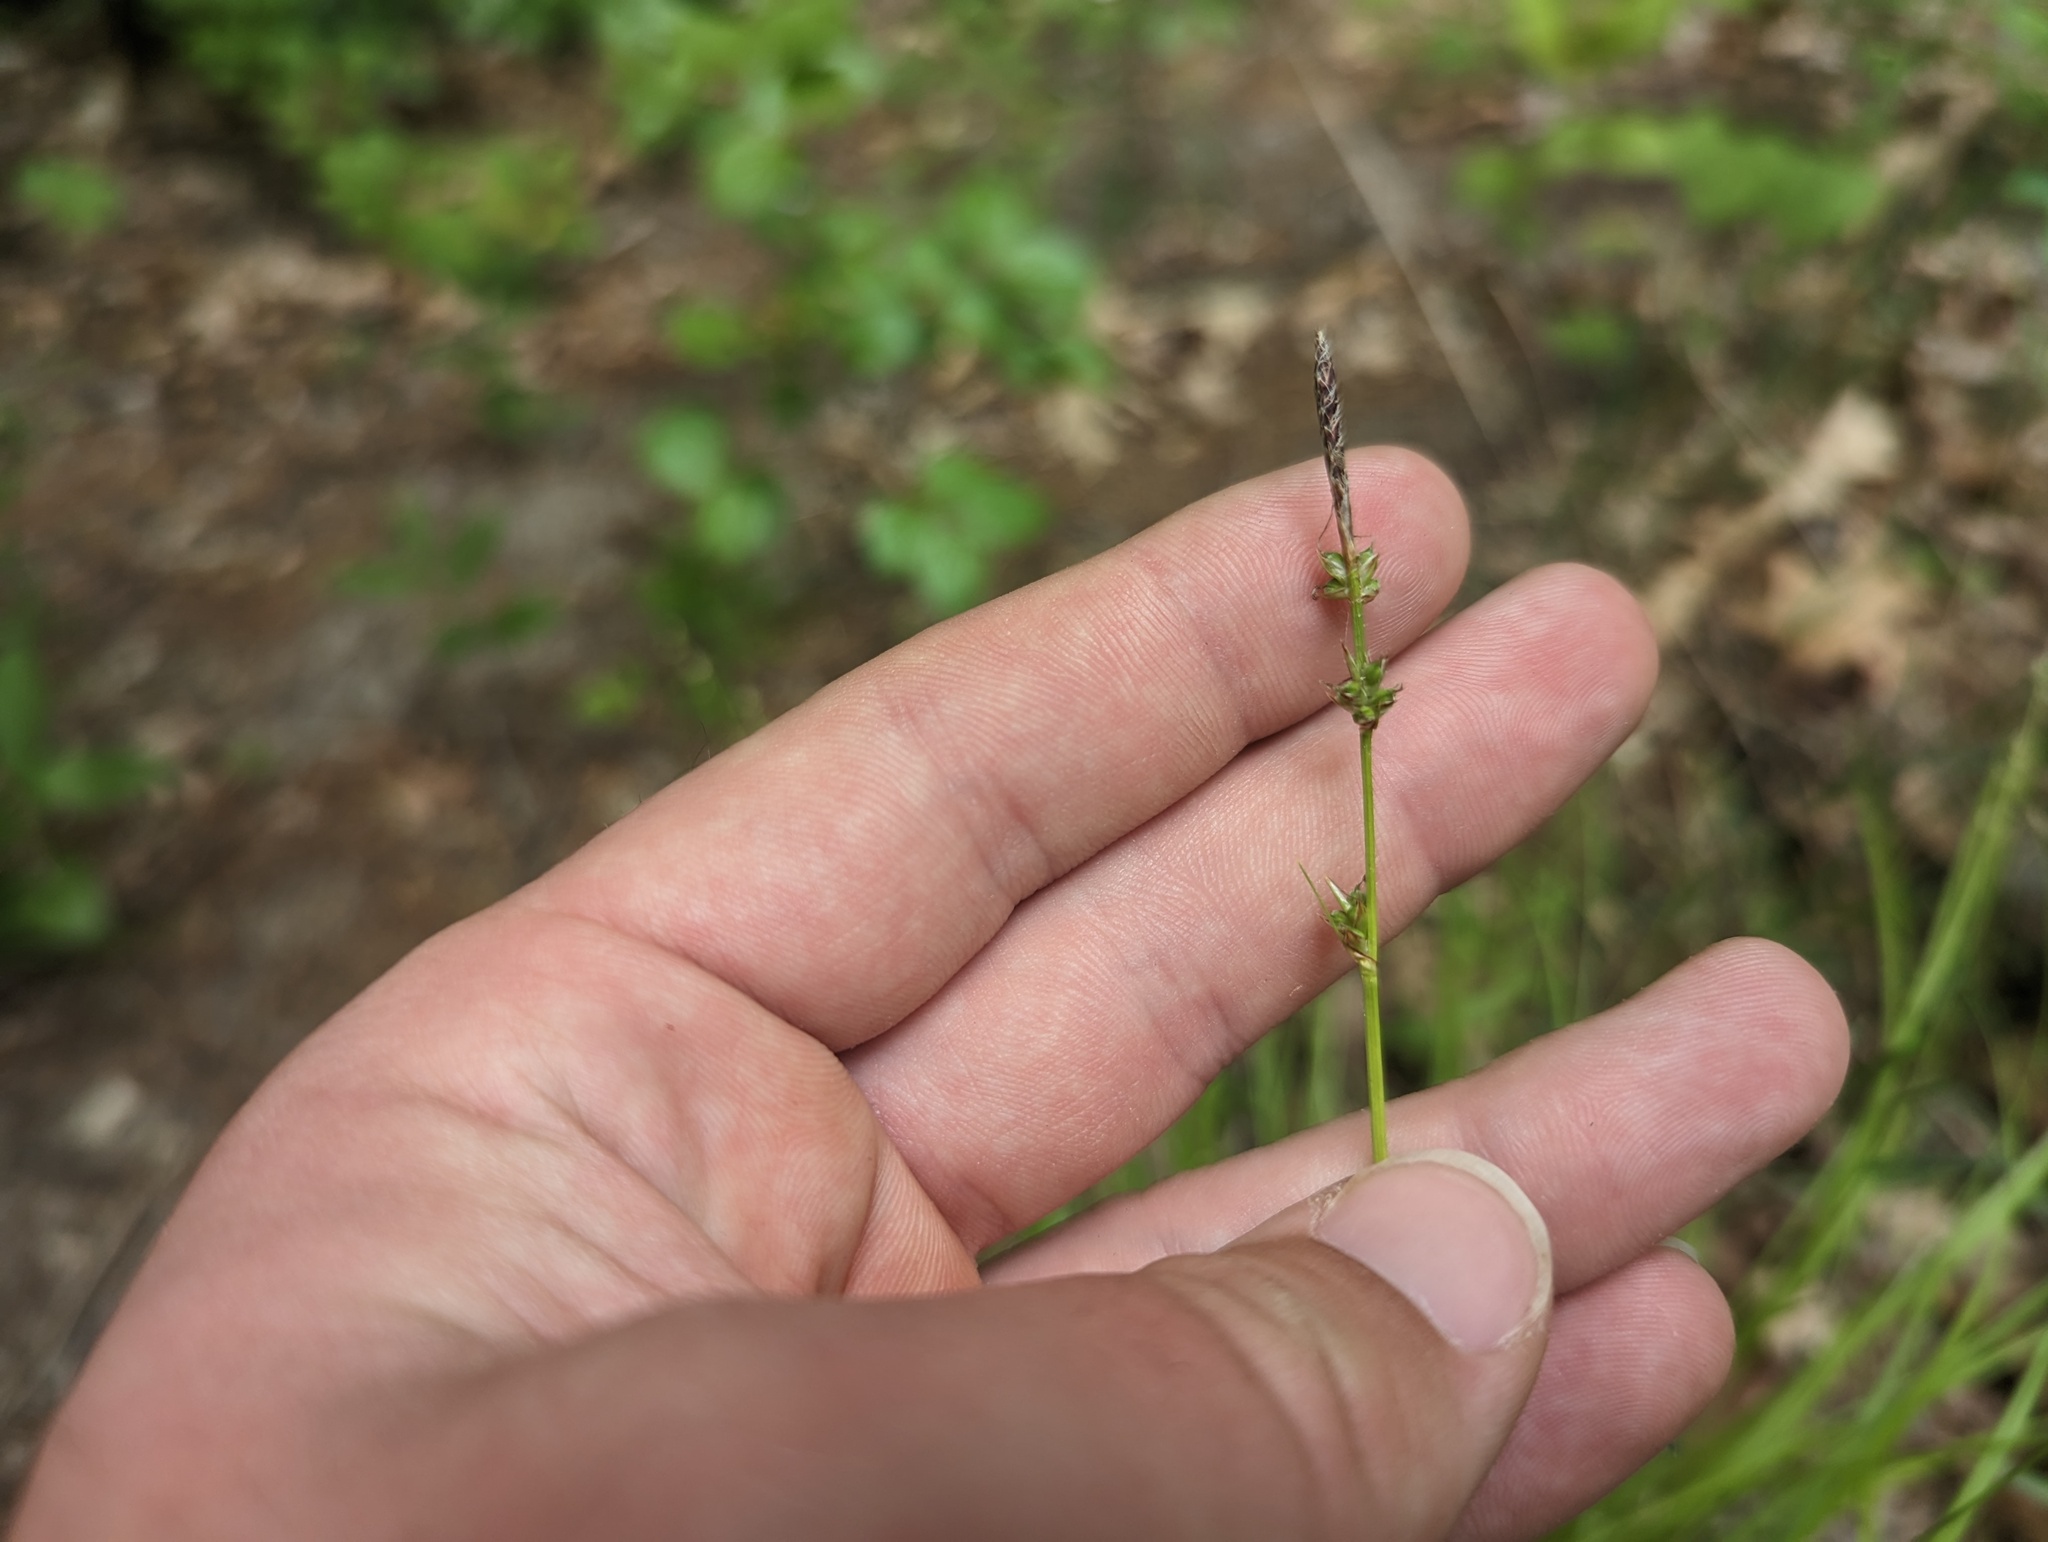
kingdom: Plantae
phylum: Tracheophyta
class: Liliopsida
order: Poales
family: Cyperaceae
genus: Carex
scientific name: Carex communis
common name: Colonial oak sedge
